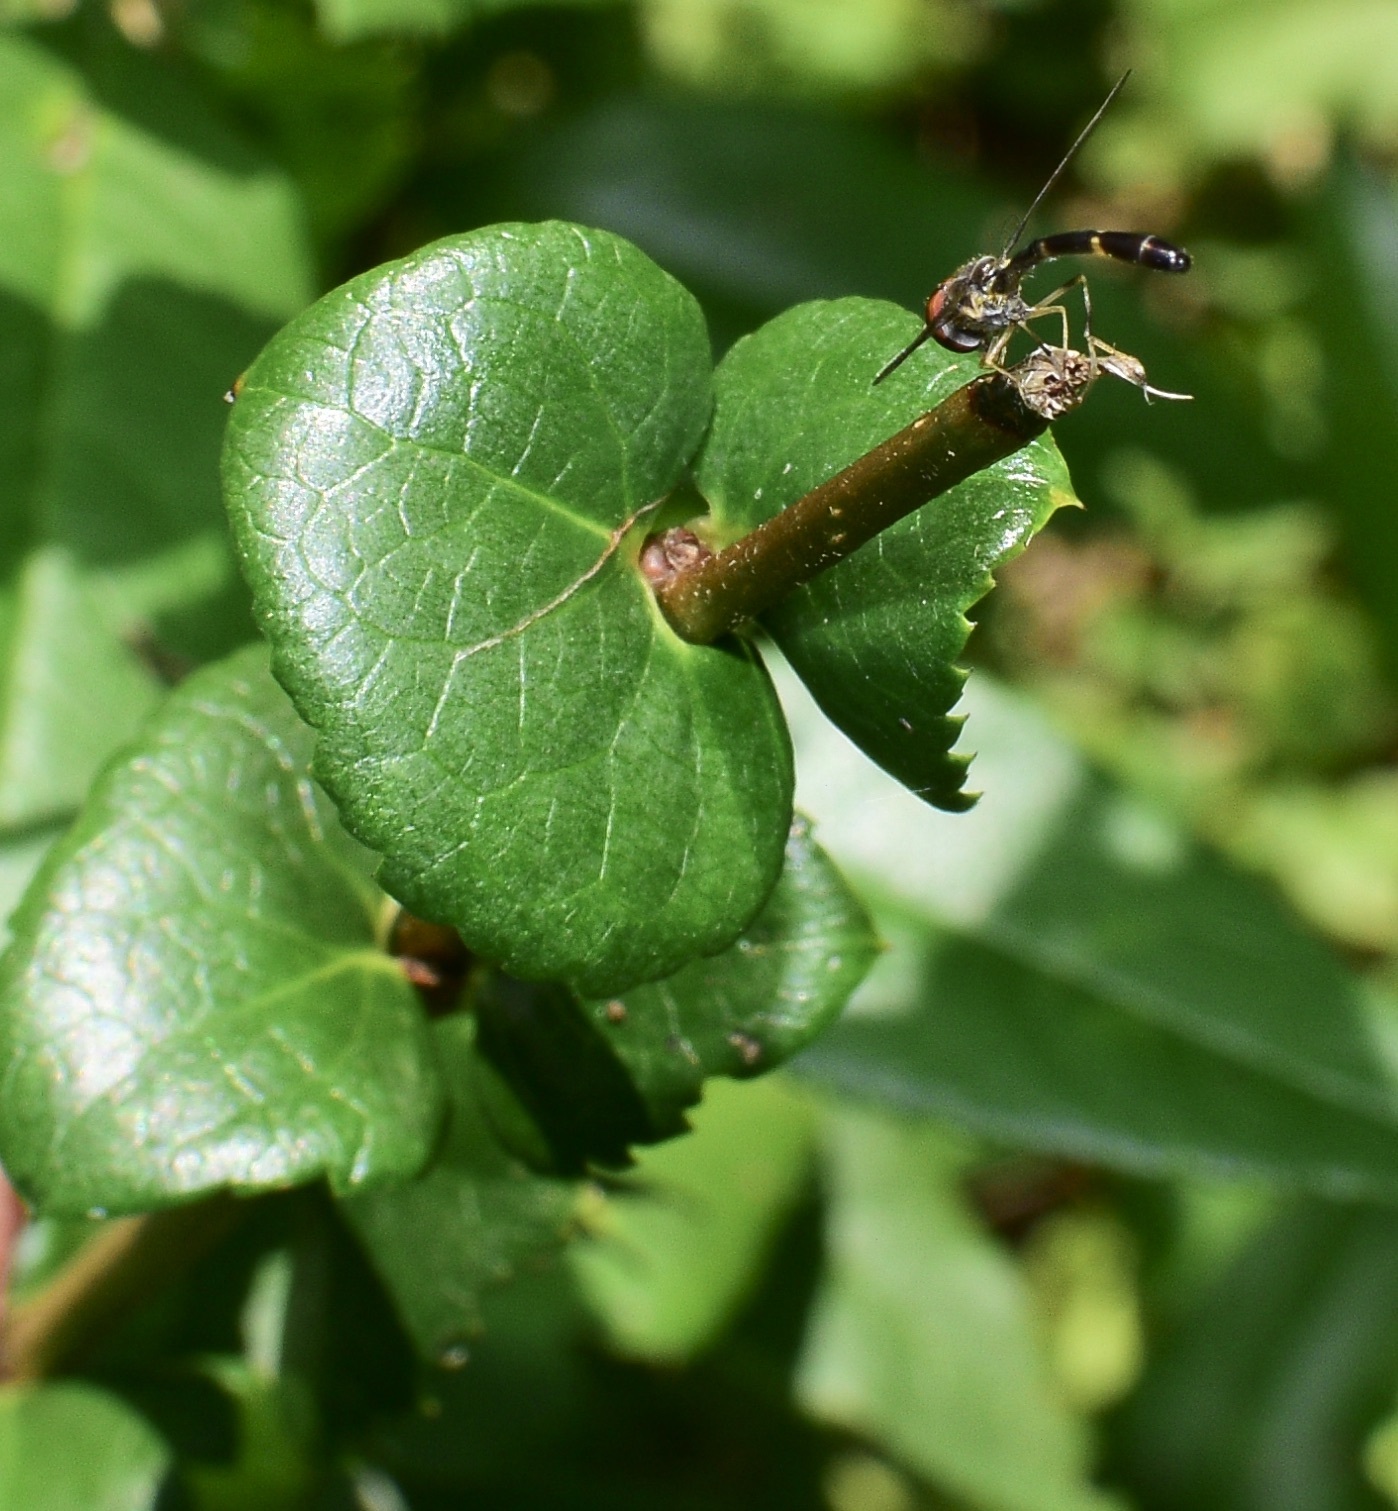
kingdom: Animalia
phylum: Arthropoda
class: Insecta
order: Diptera
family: Syrphidae
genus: Hypocritanus
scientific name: Hypocritanus fascipennis
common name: Eastern band-winged hover fly
